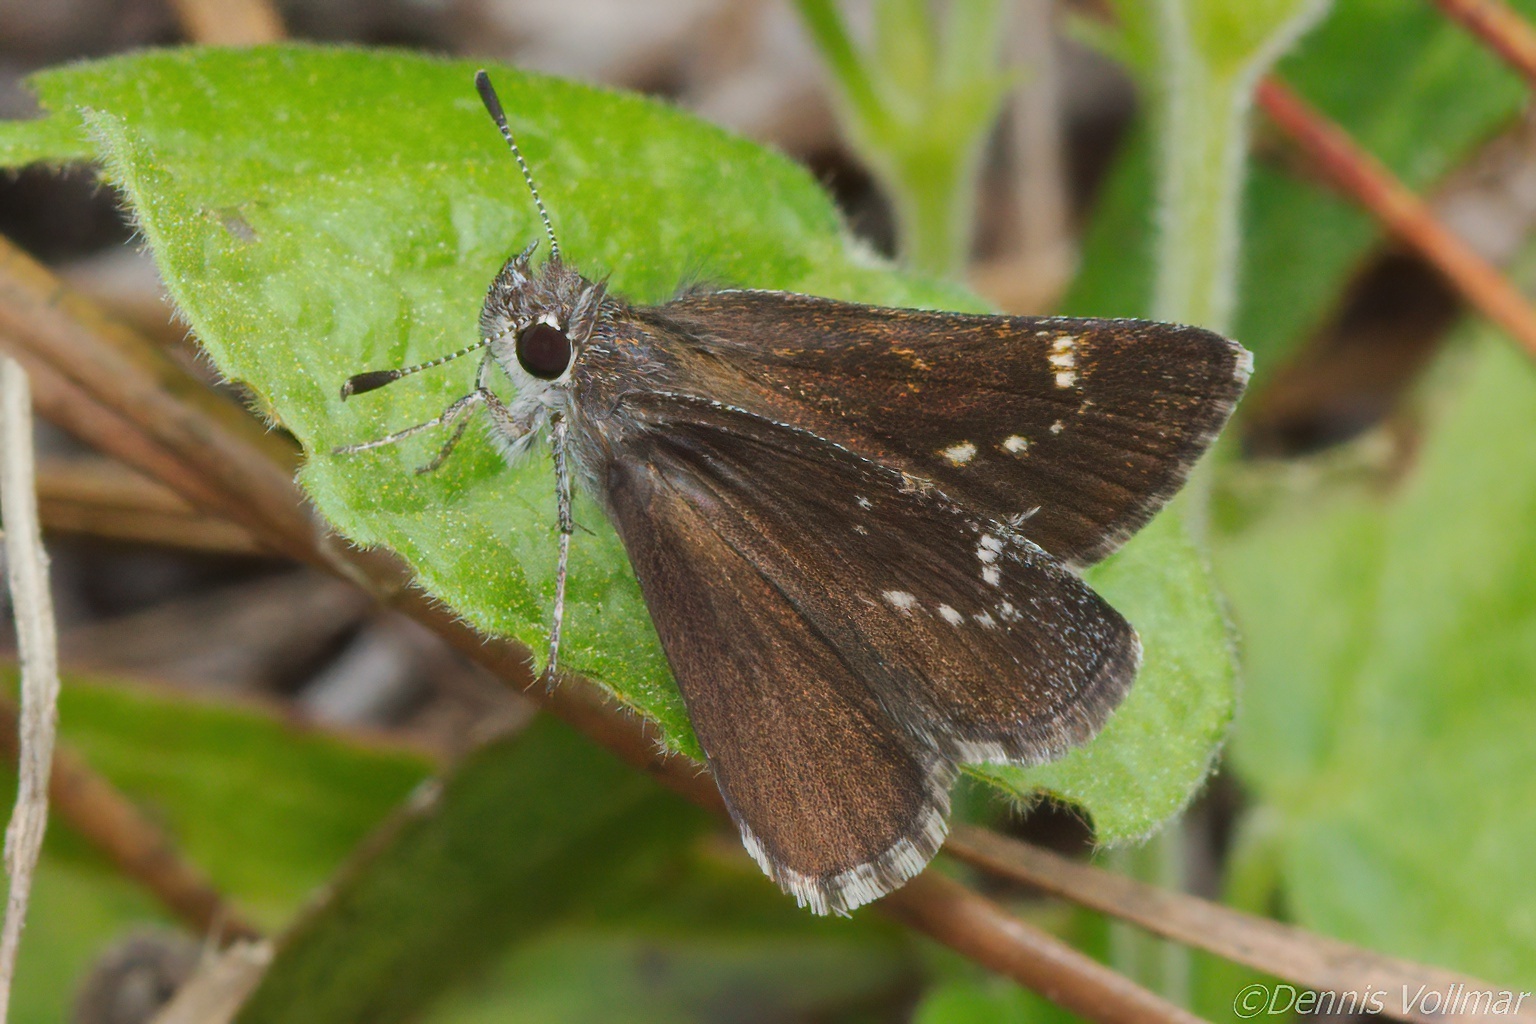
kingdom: Animalia
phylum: Arthropoda
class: Insecta
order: Lepidoptera
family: Hesperiidae
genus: Mastor
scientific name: Mastor alternata
